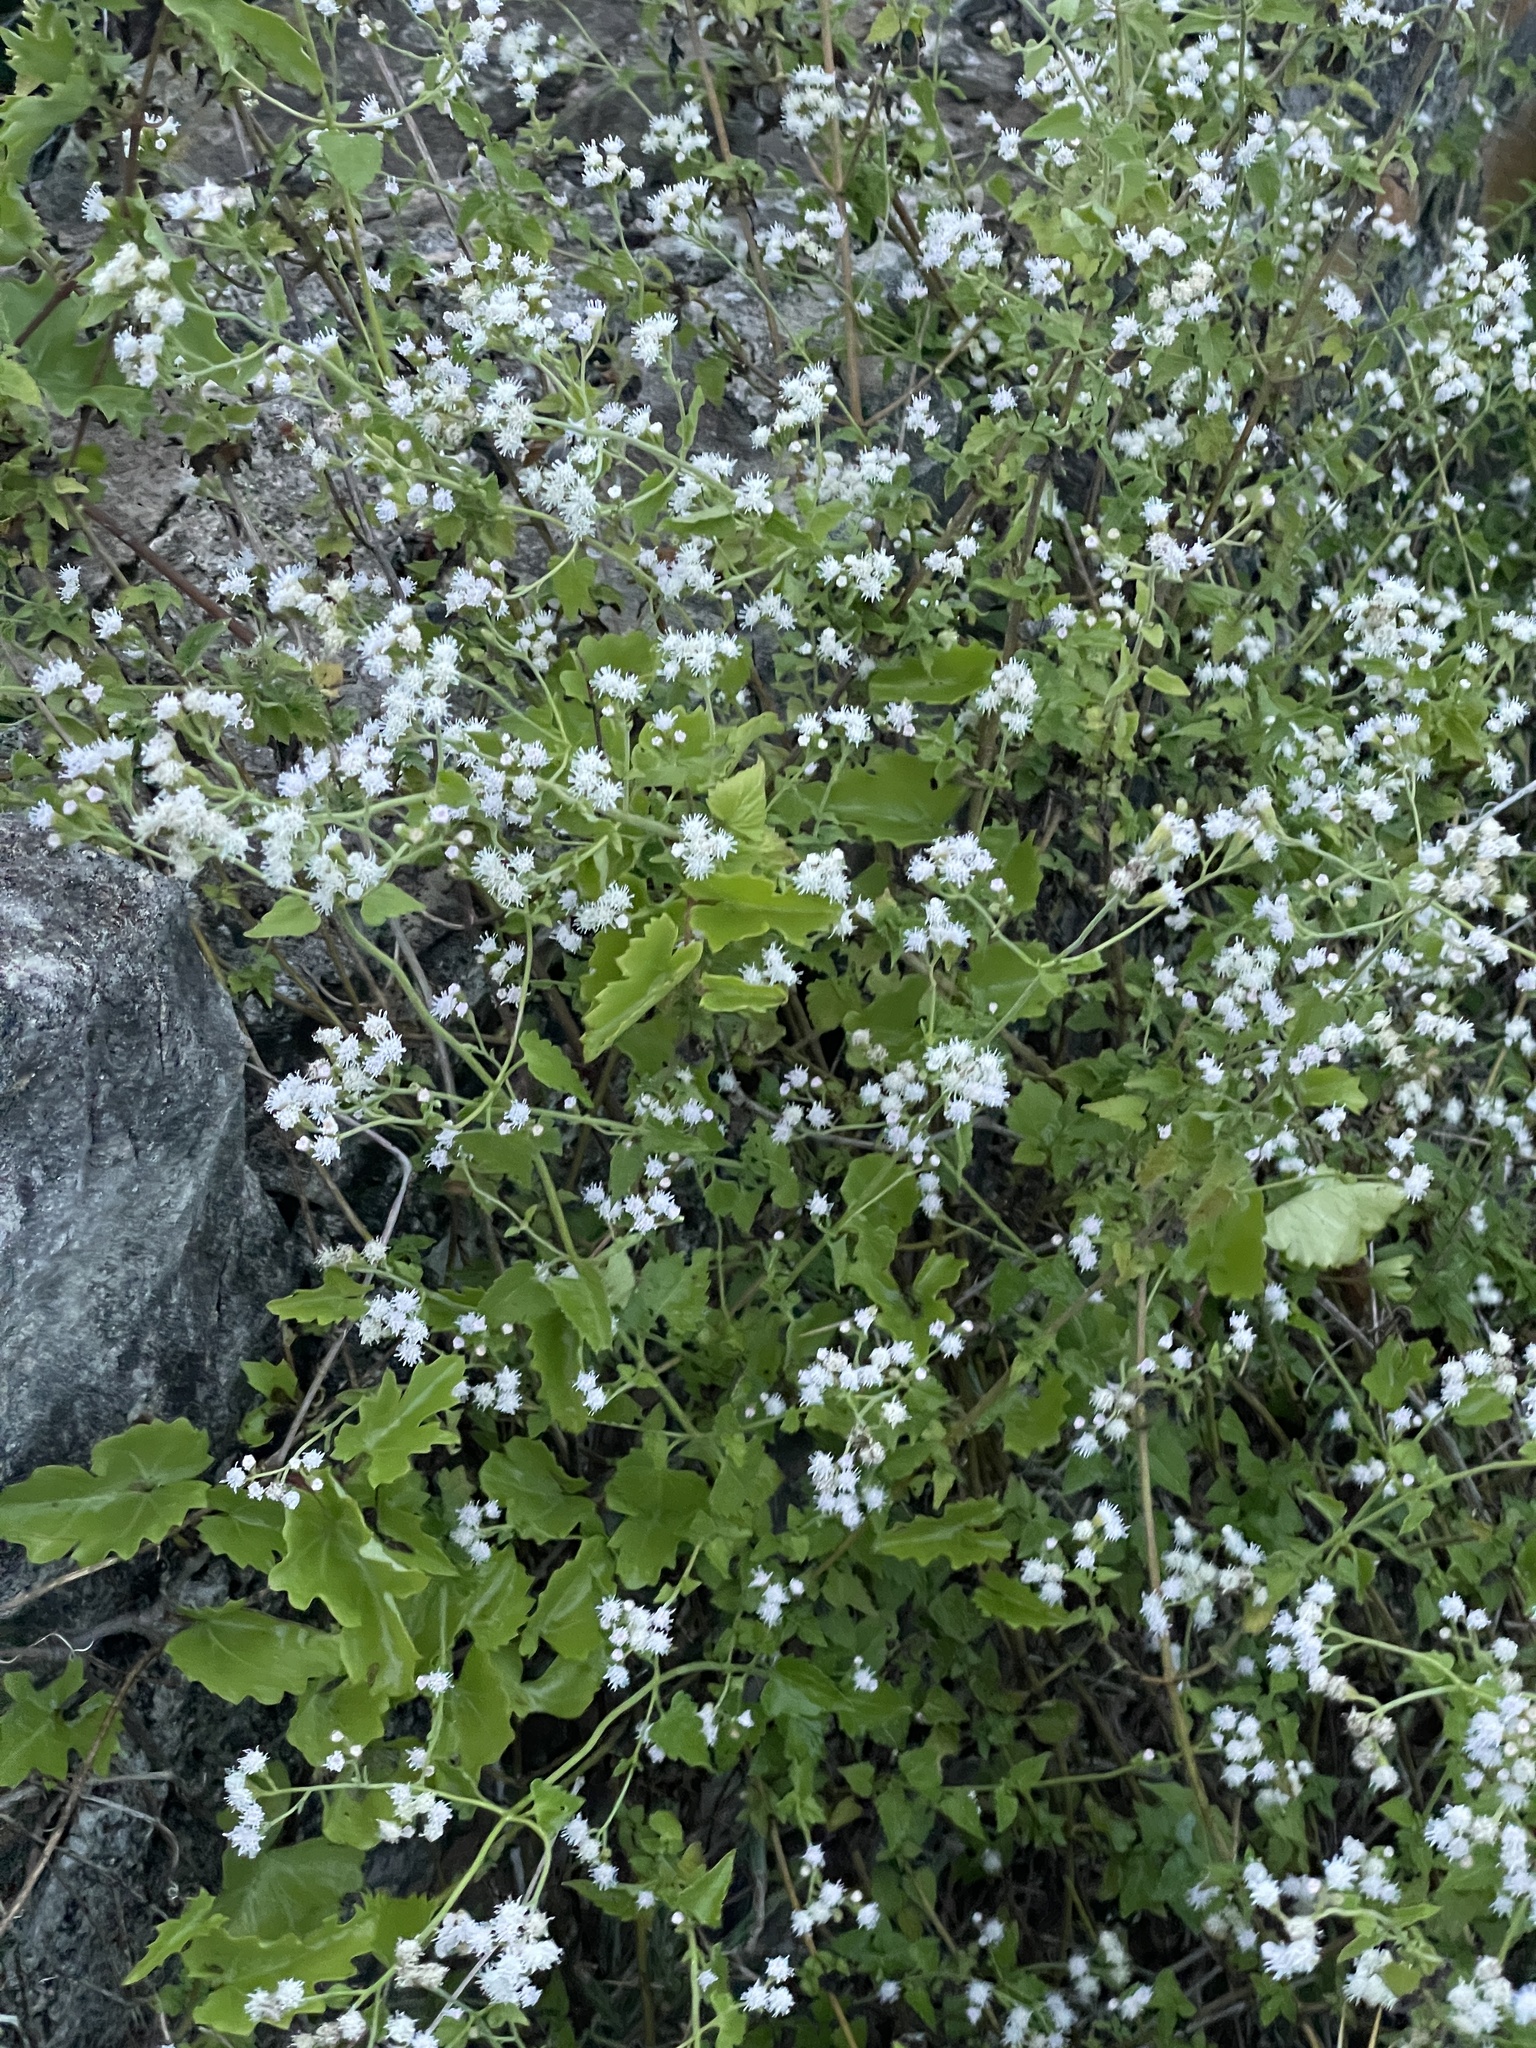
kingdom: Plantae
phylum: Tracheophyta
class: Magnoliopsida
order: Asterales
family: Asteraceae
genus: Fleischmannia
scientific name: Fleischmannia incarnata
